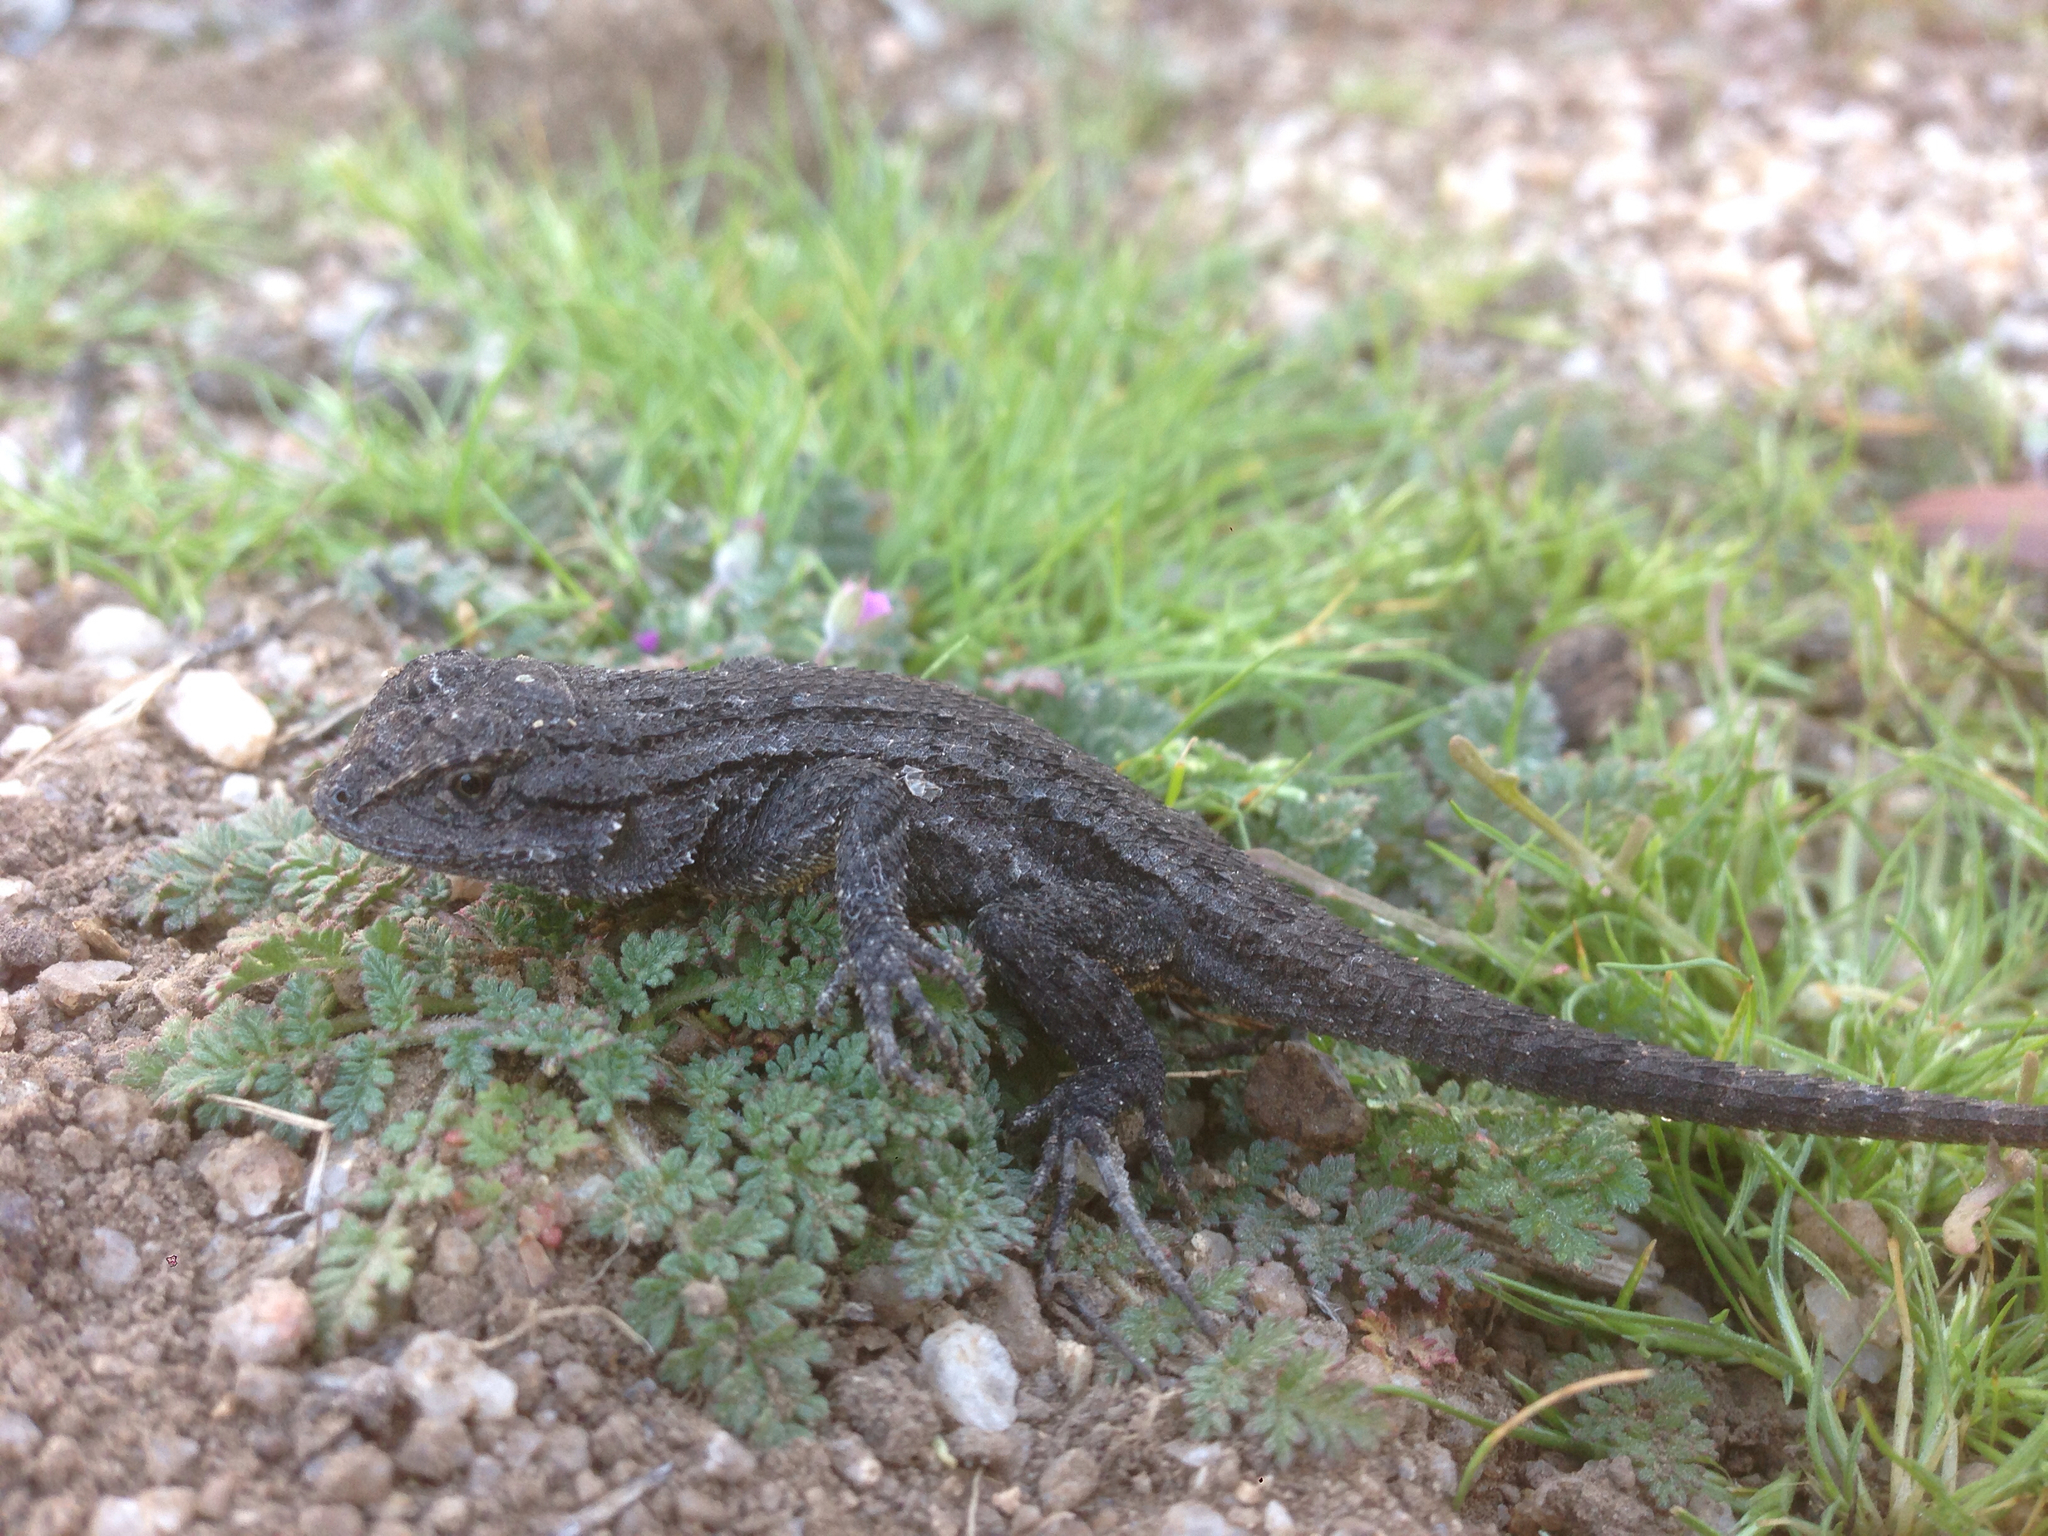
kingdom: Animalia
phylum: Chordata
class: Squamata
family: Phrynosomatidae
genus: Sceloporus
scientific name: Sceloporus occidentalis
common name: Western fence lizard
